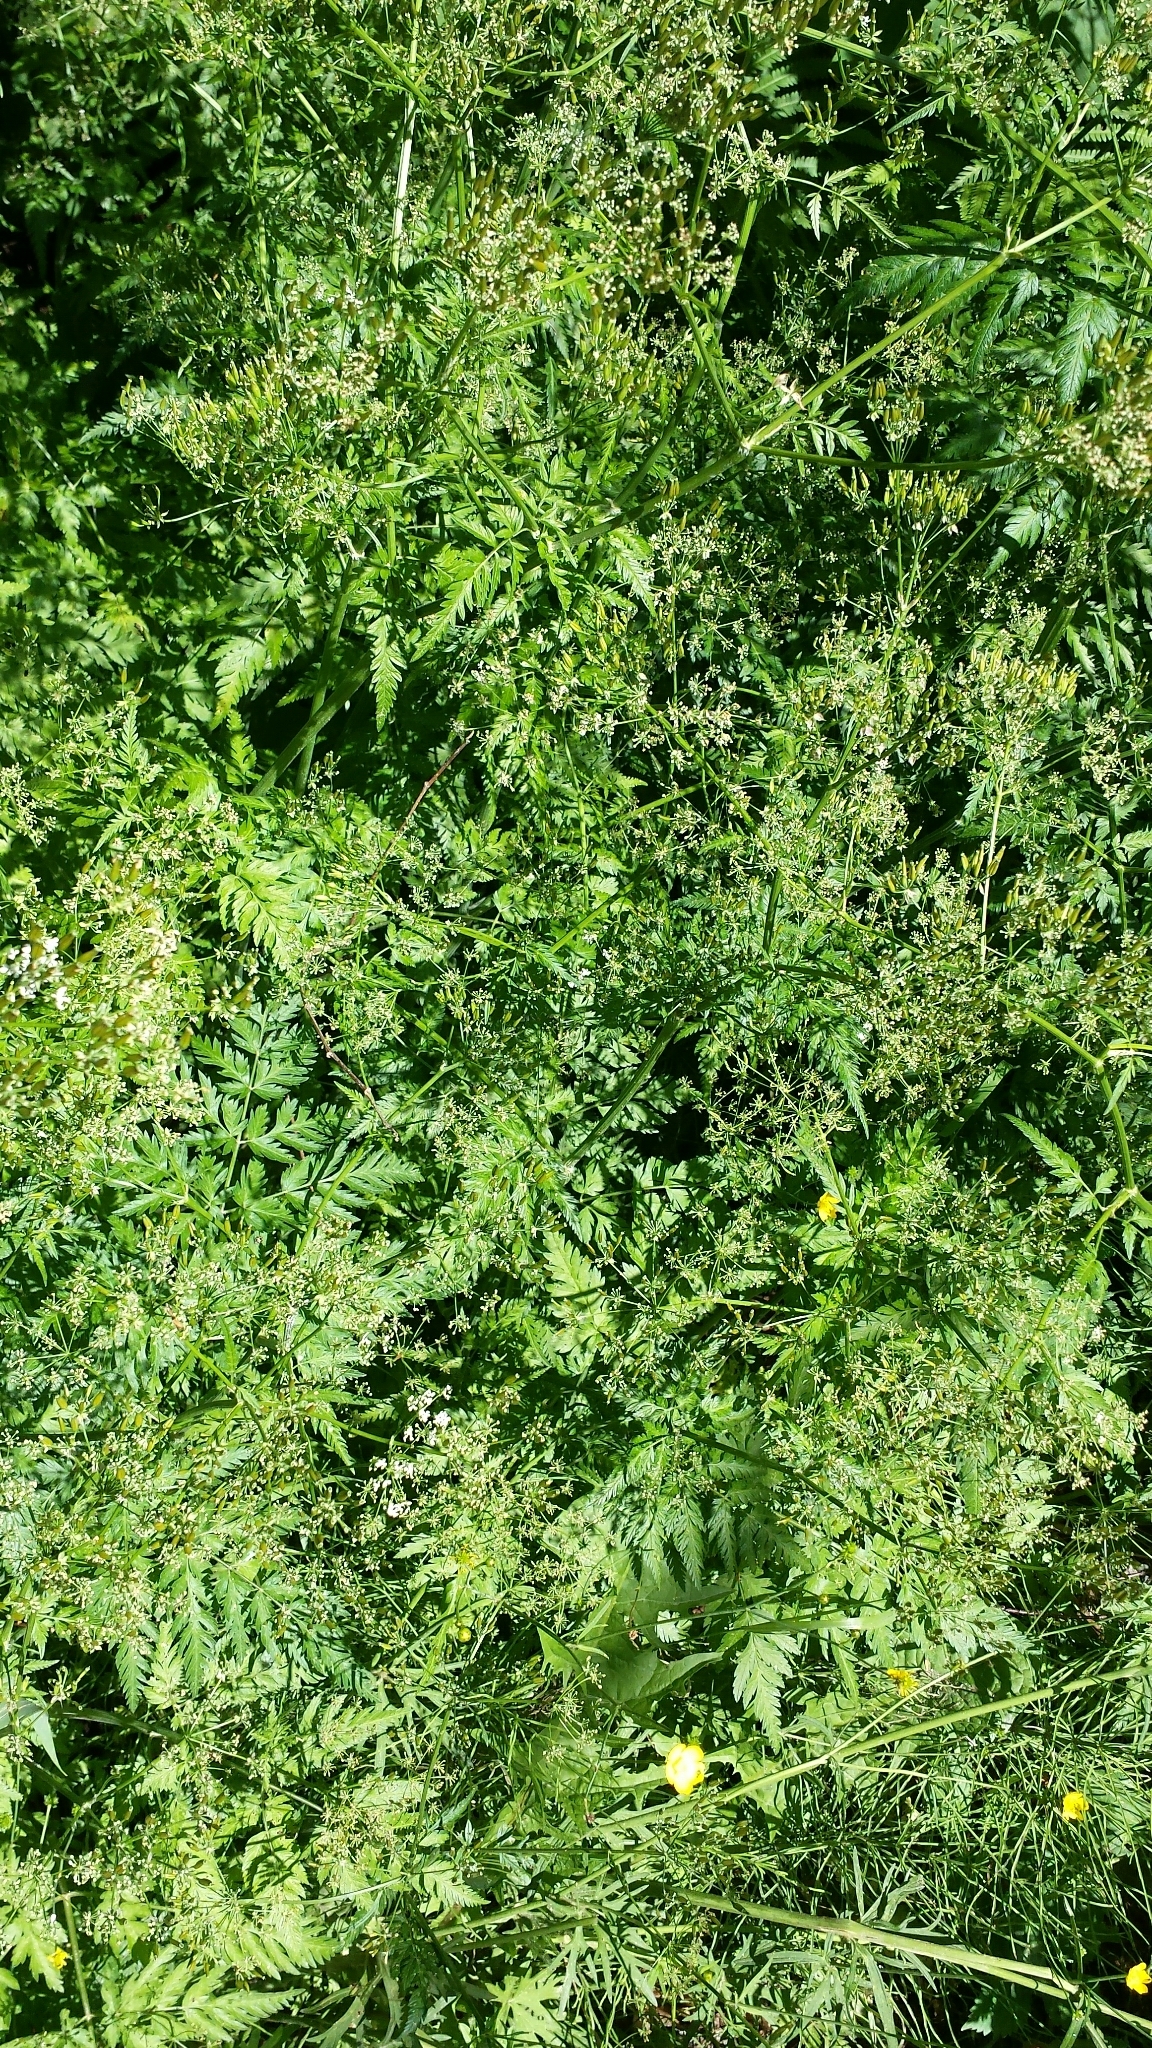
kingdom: Plantae
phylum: Tracheophyta
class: Magnoliopsida
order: Apiales
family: Apiaceae
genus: Anthriscus
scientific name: Anthriscus sylvestris
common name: Cow parsley
